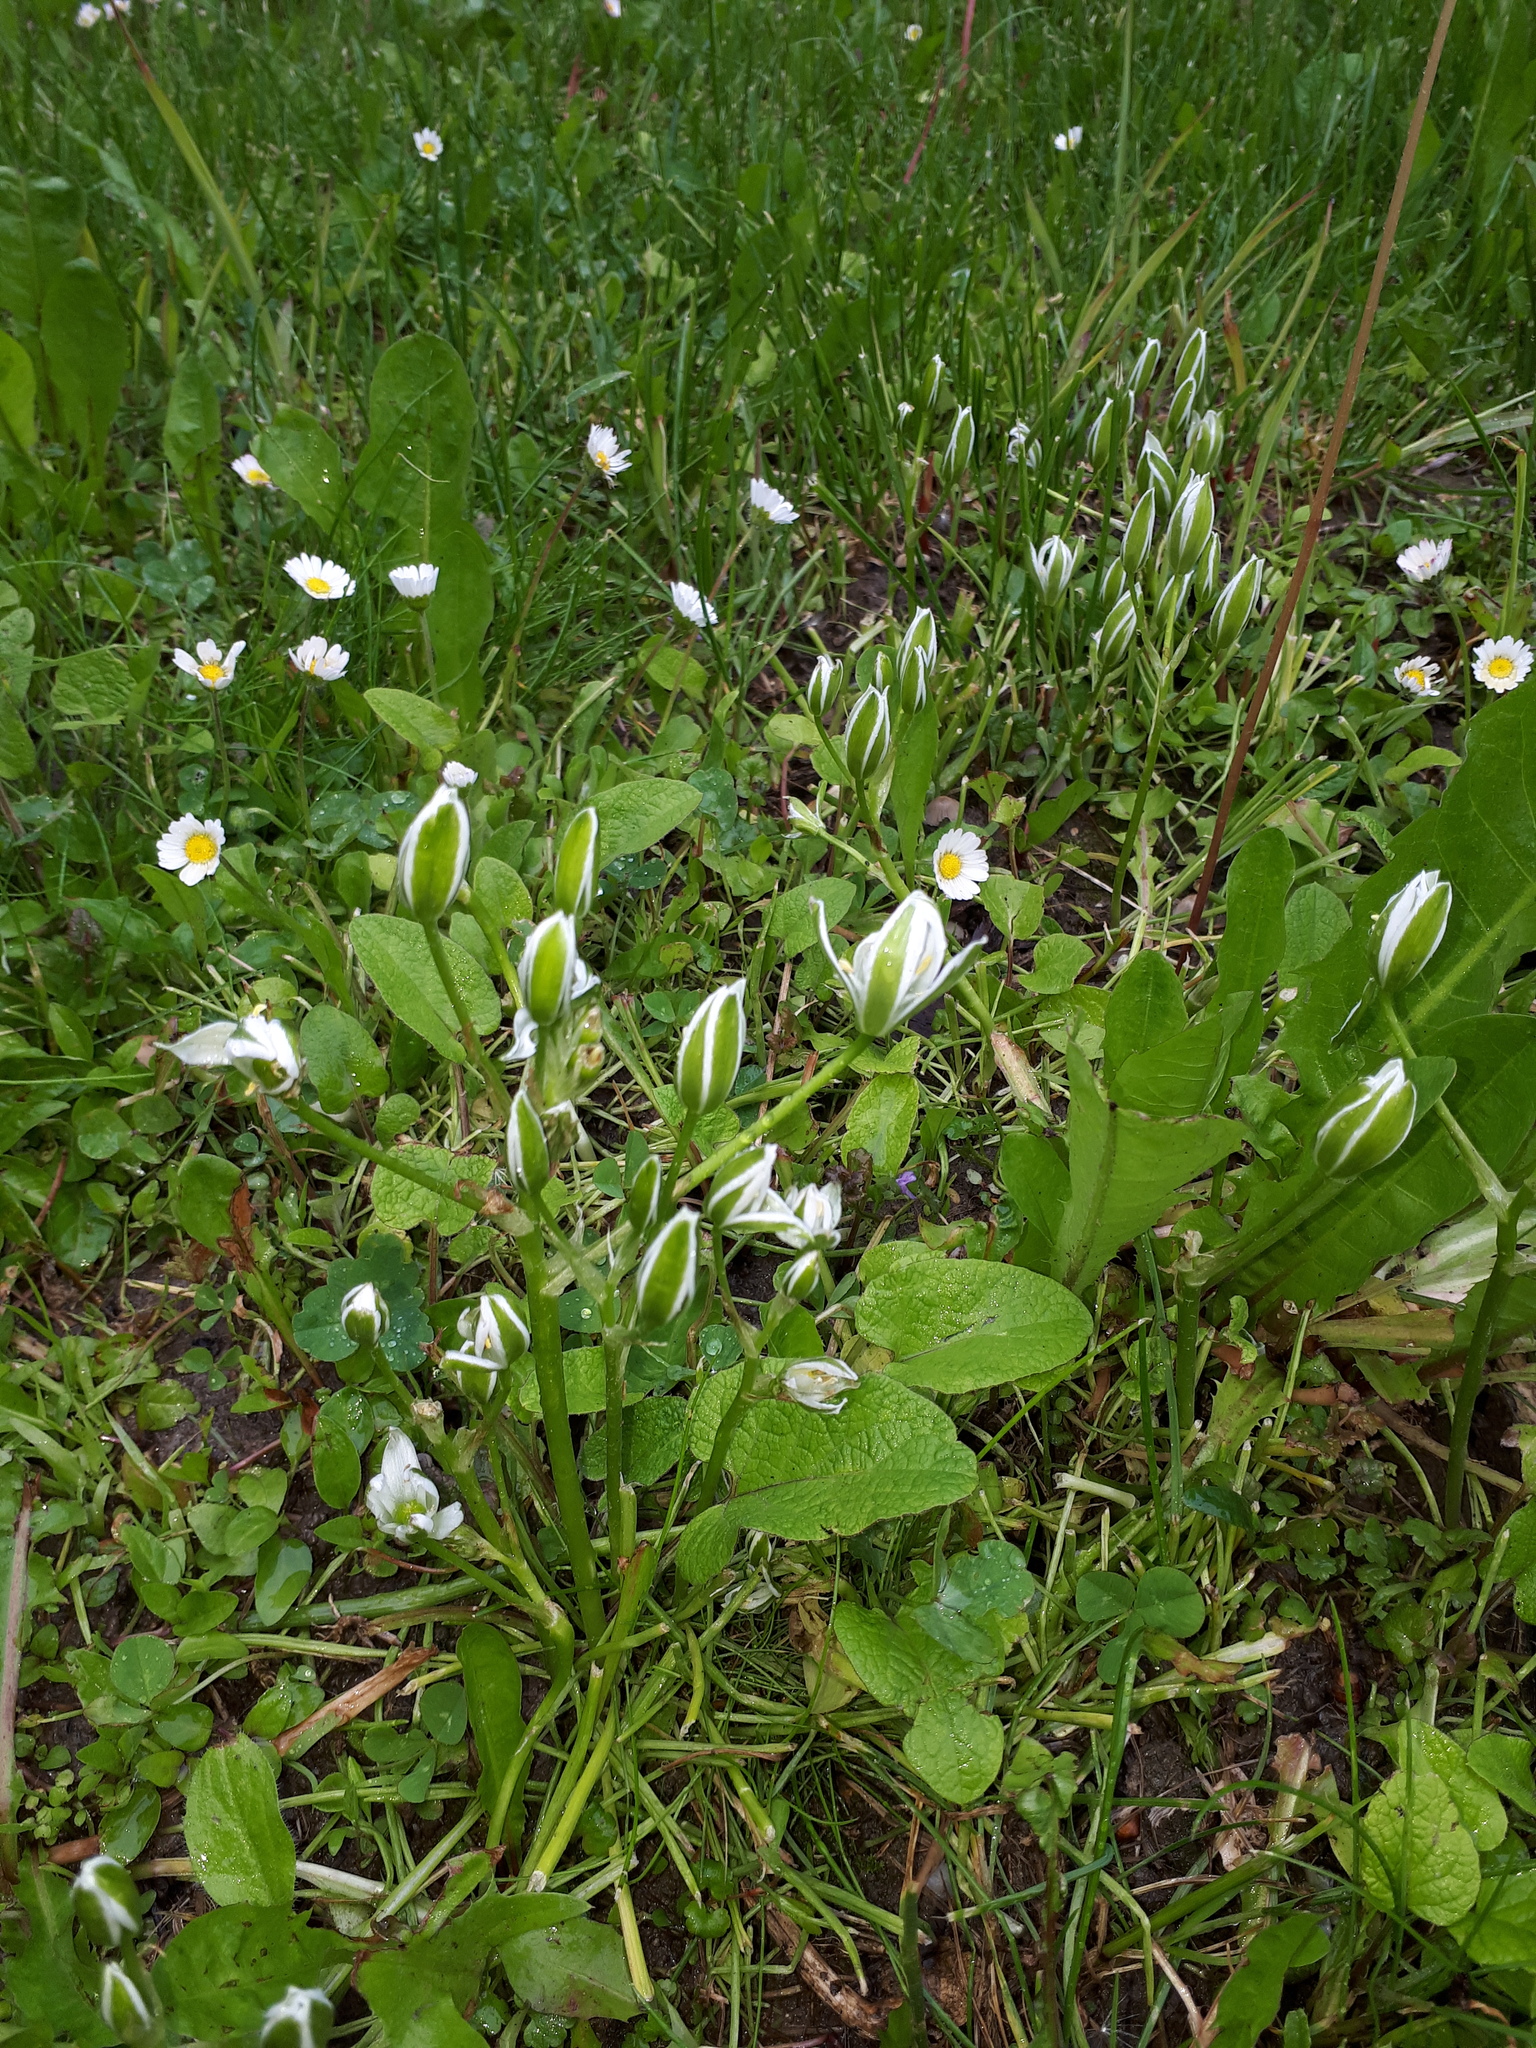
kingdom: Plantae
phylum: Tracheophyta
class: Liliopsida
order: Asparagales
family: Asparagaceae
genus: Ornithogalum
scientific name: Ornithogalum umbellatum
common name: Garden star-of-bethlehem
